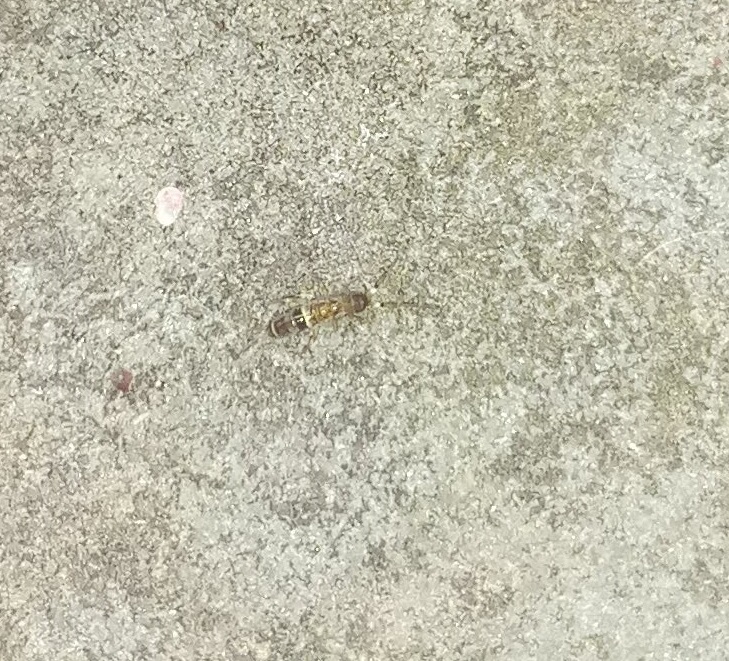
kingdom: Animalia
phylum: Arthropoda
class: Collembola
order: Entomobryomorpha
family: Orchesellidae
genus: Orchesella
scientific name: Orchesella cincta
